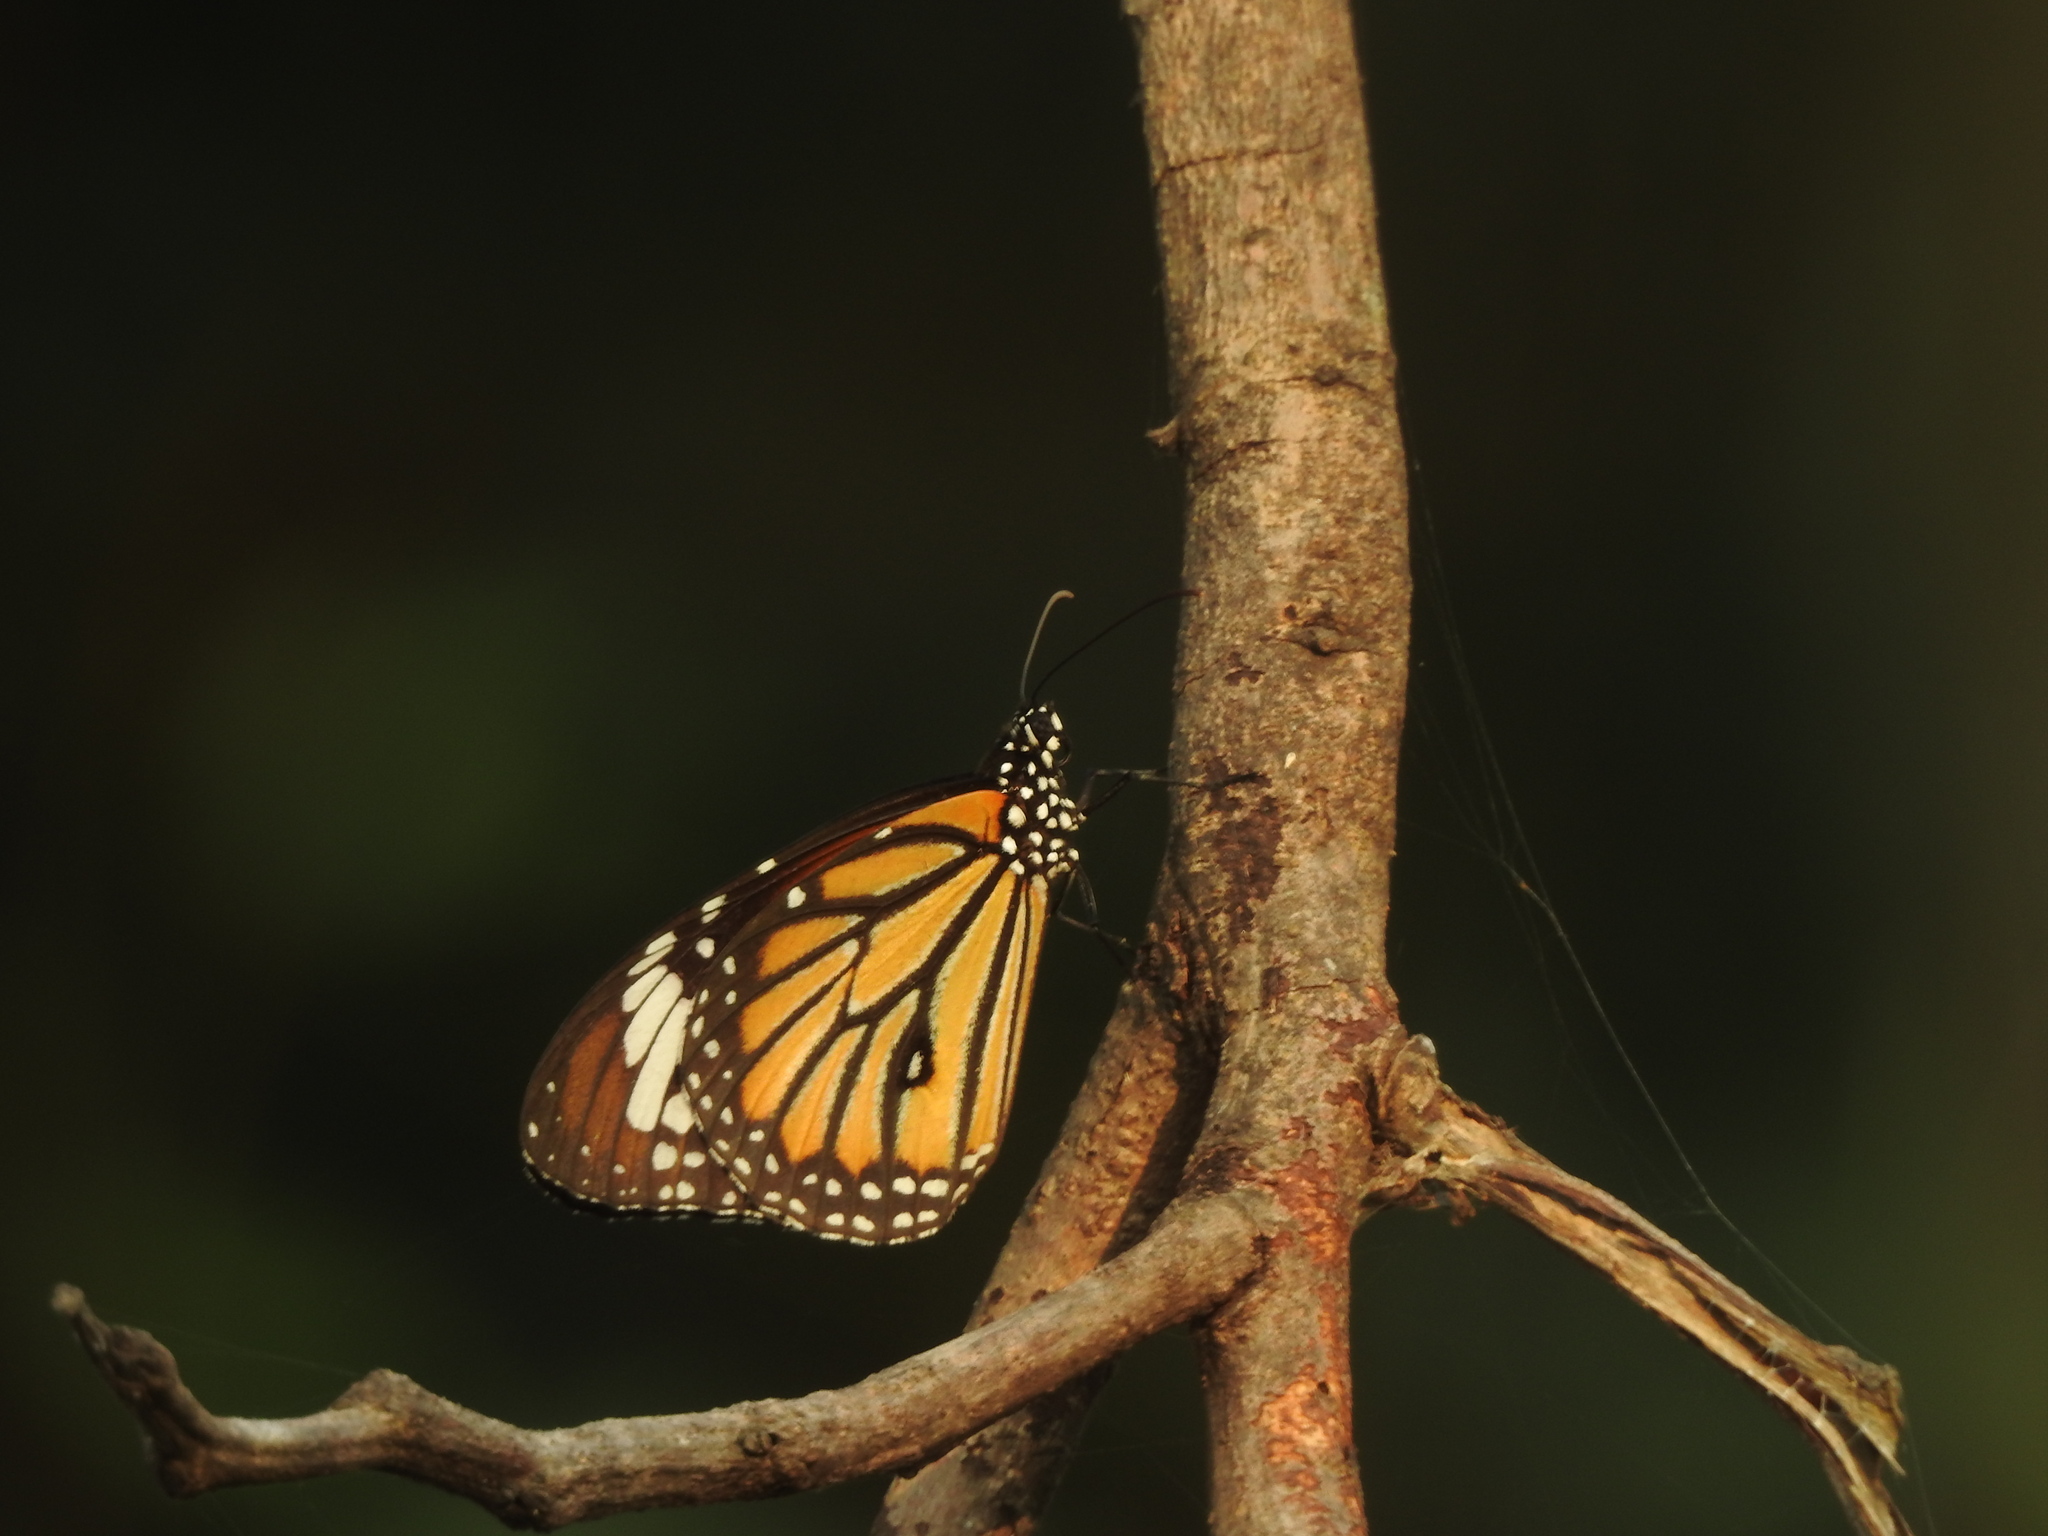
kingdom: Animalia
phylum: Arthropoda
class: Insecta
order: Lepidoptera
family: Nymphalidae
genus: Danaus
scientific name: Danaus genutia
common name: Common tiger butterfly
